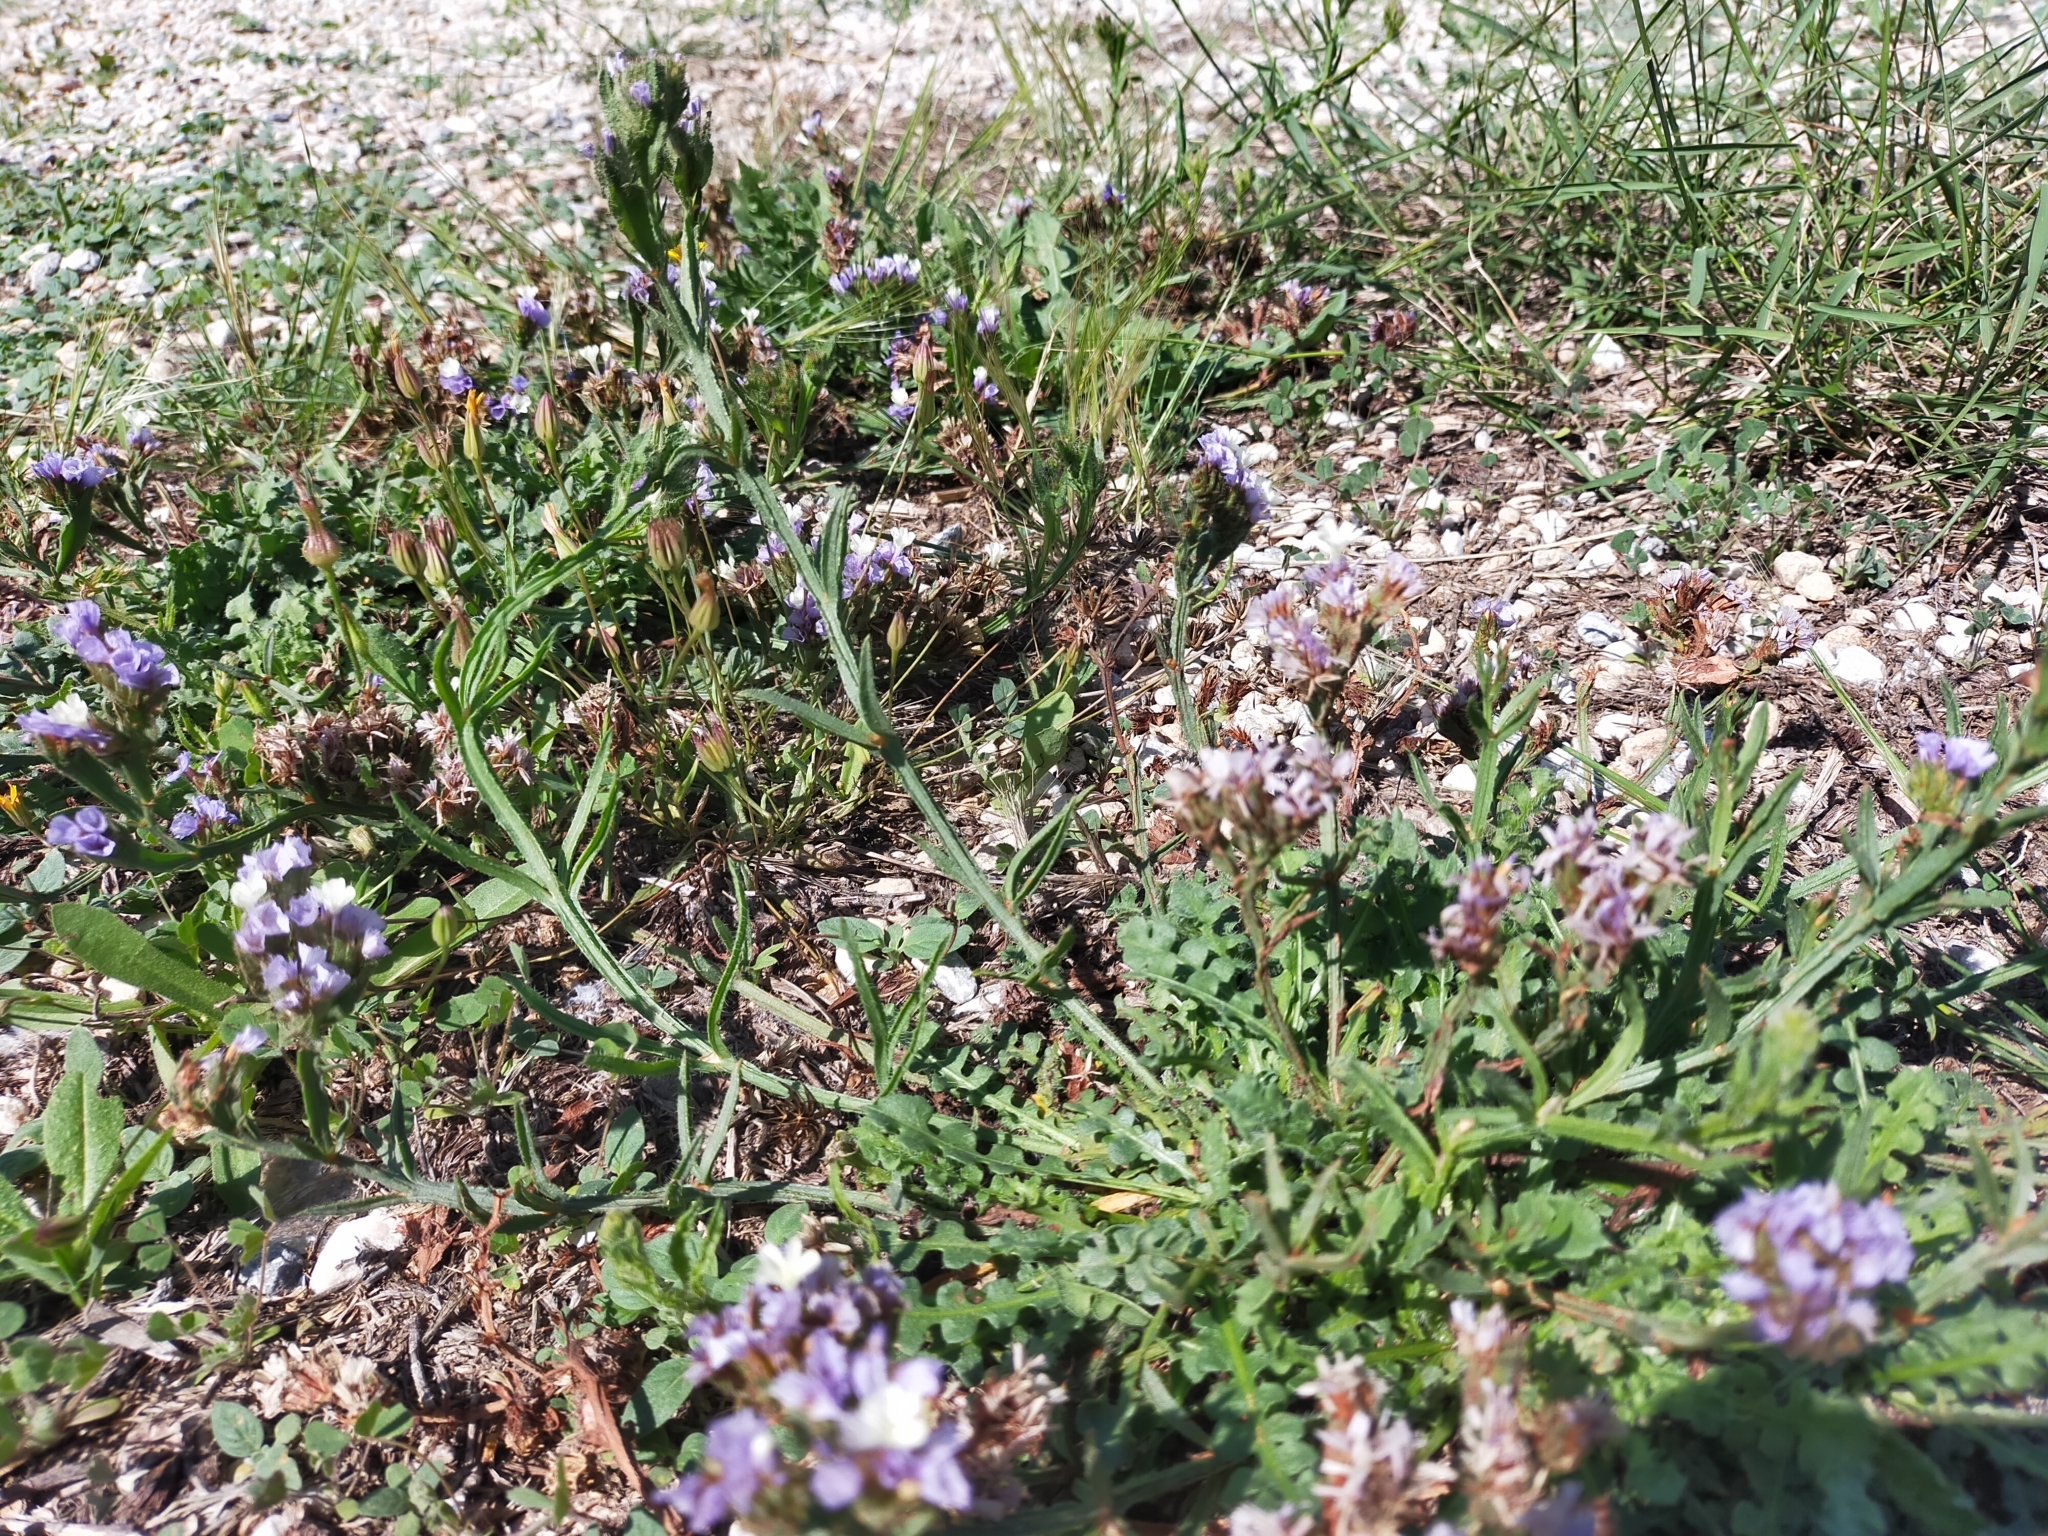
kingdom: Plantae
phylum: Tracheophyta
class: Magnoliopsida
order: Caryophyllales
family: Plumbaginaceae
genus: Limonium
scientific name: Limonium sinuatum
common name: Statice
